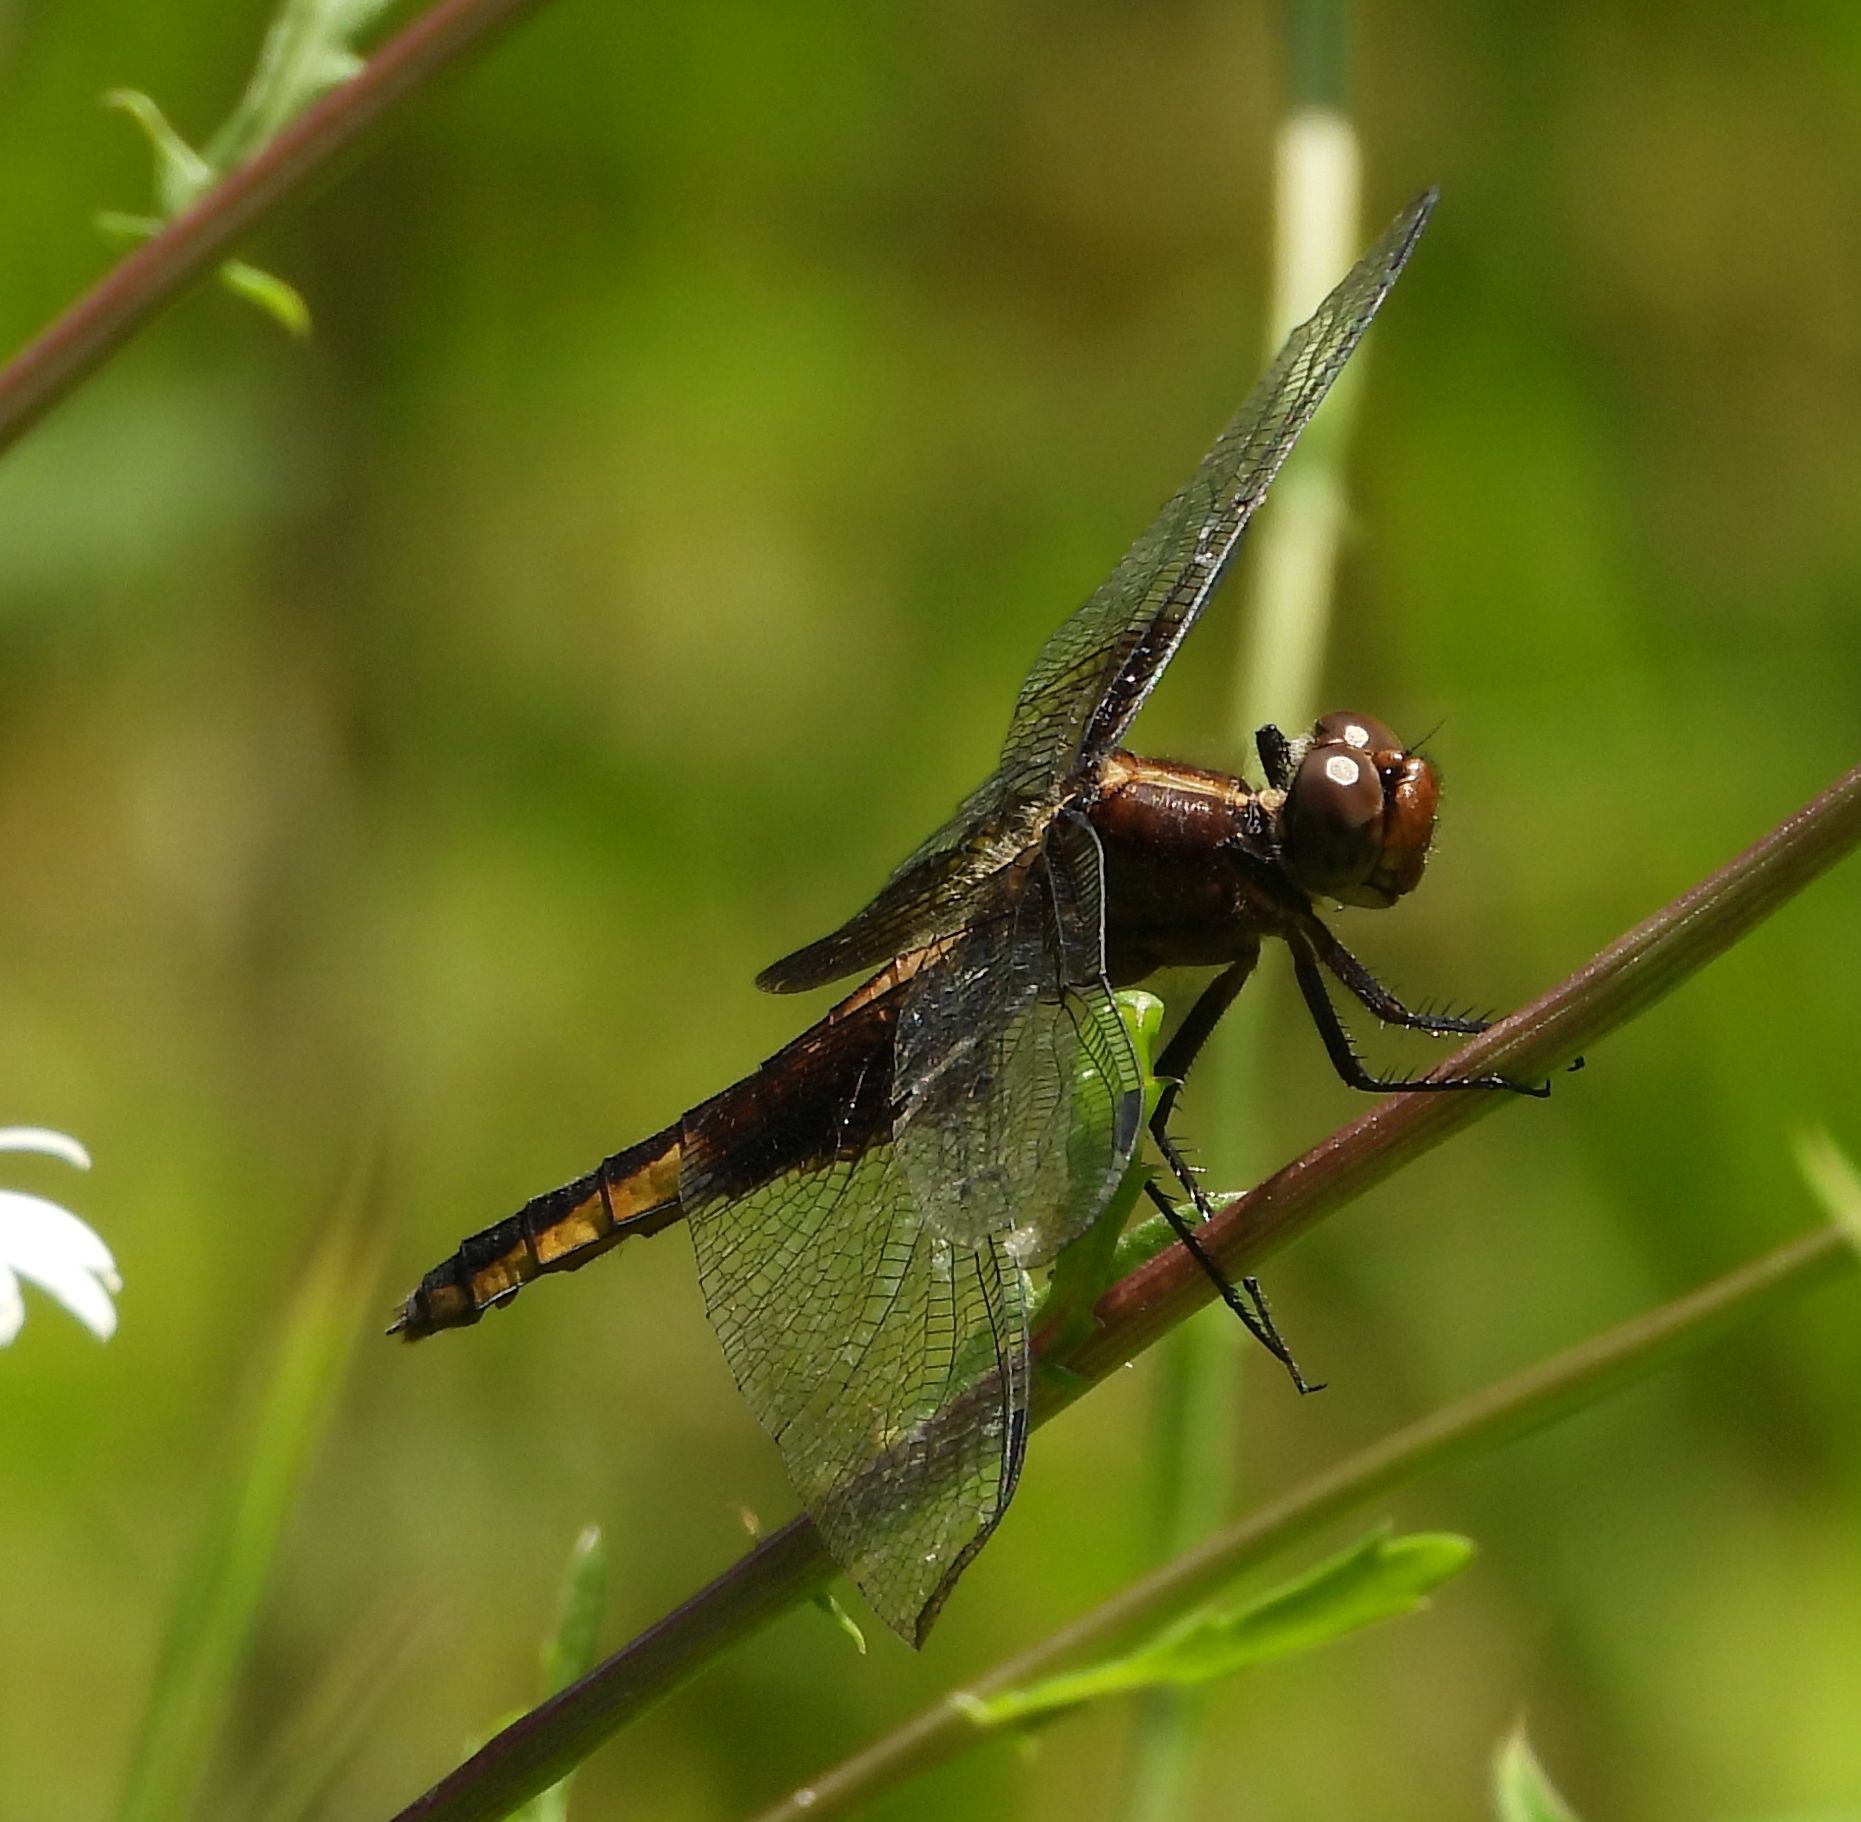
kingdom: Animalia
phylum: Arthropoda
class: Insecta
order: Odonata
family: Libellulidae
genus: Libellula
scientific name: Libellula luctuosa
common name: Widow skimmer
